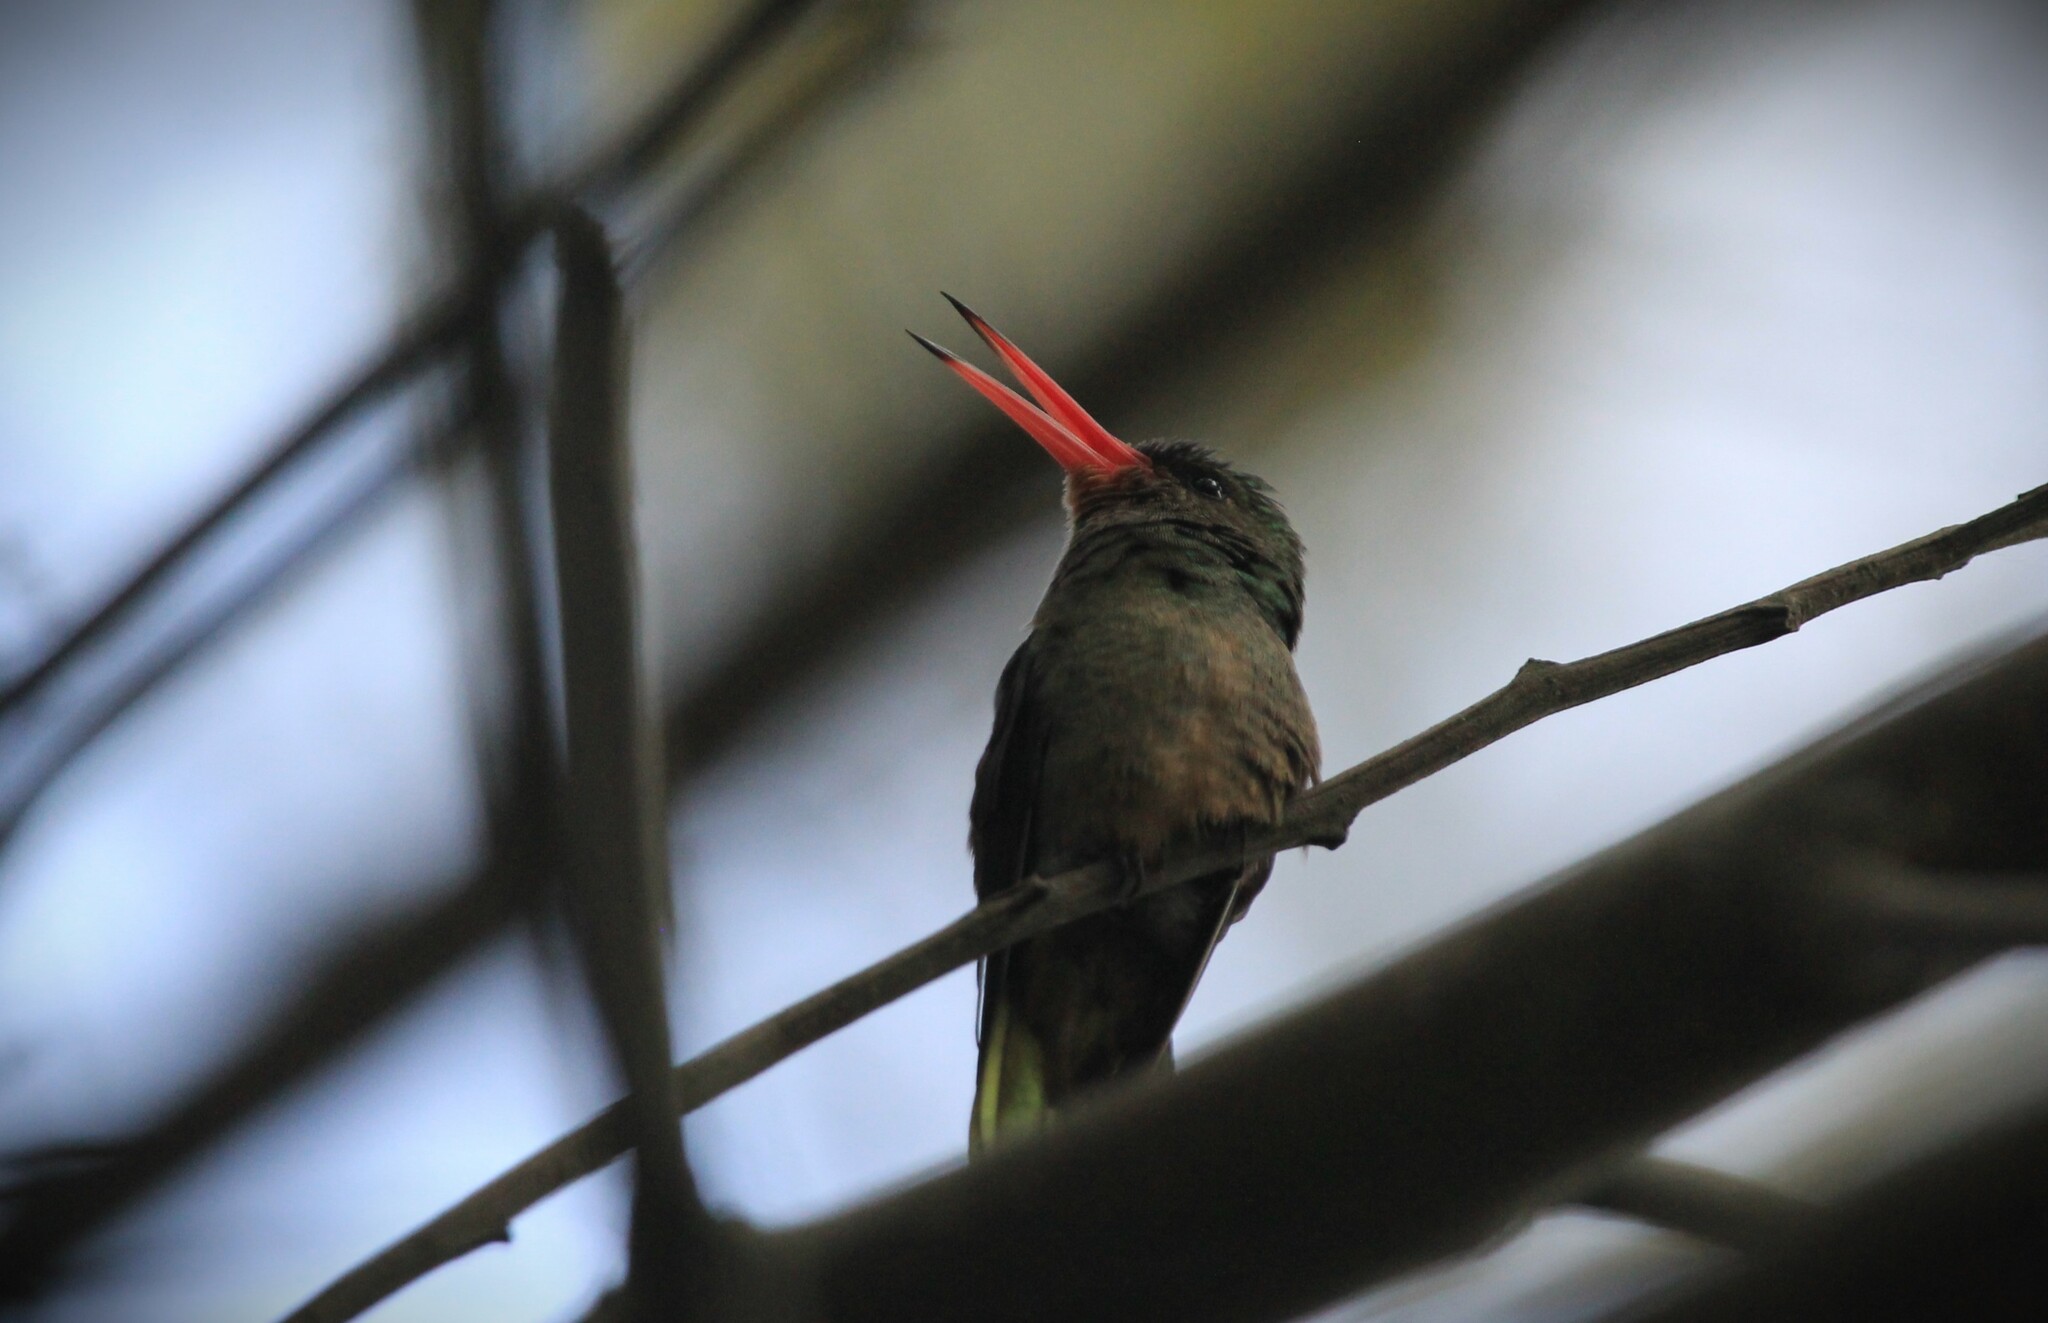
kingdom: Animalia
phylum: Chordata
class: Aves
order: Apodiformes
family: Trochilidae
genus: Hylocharis
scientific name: Hylocharis chrysura
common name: Gilded sapphire
